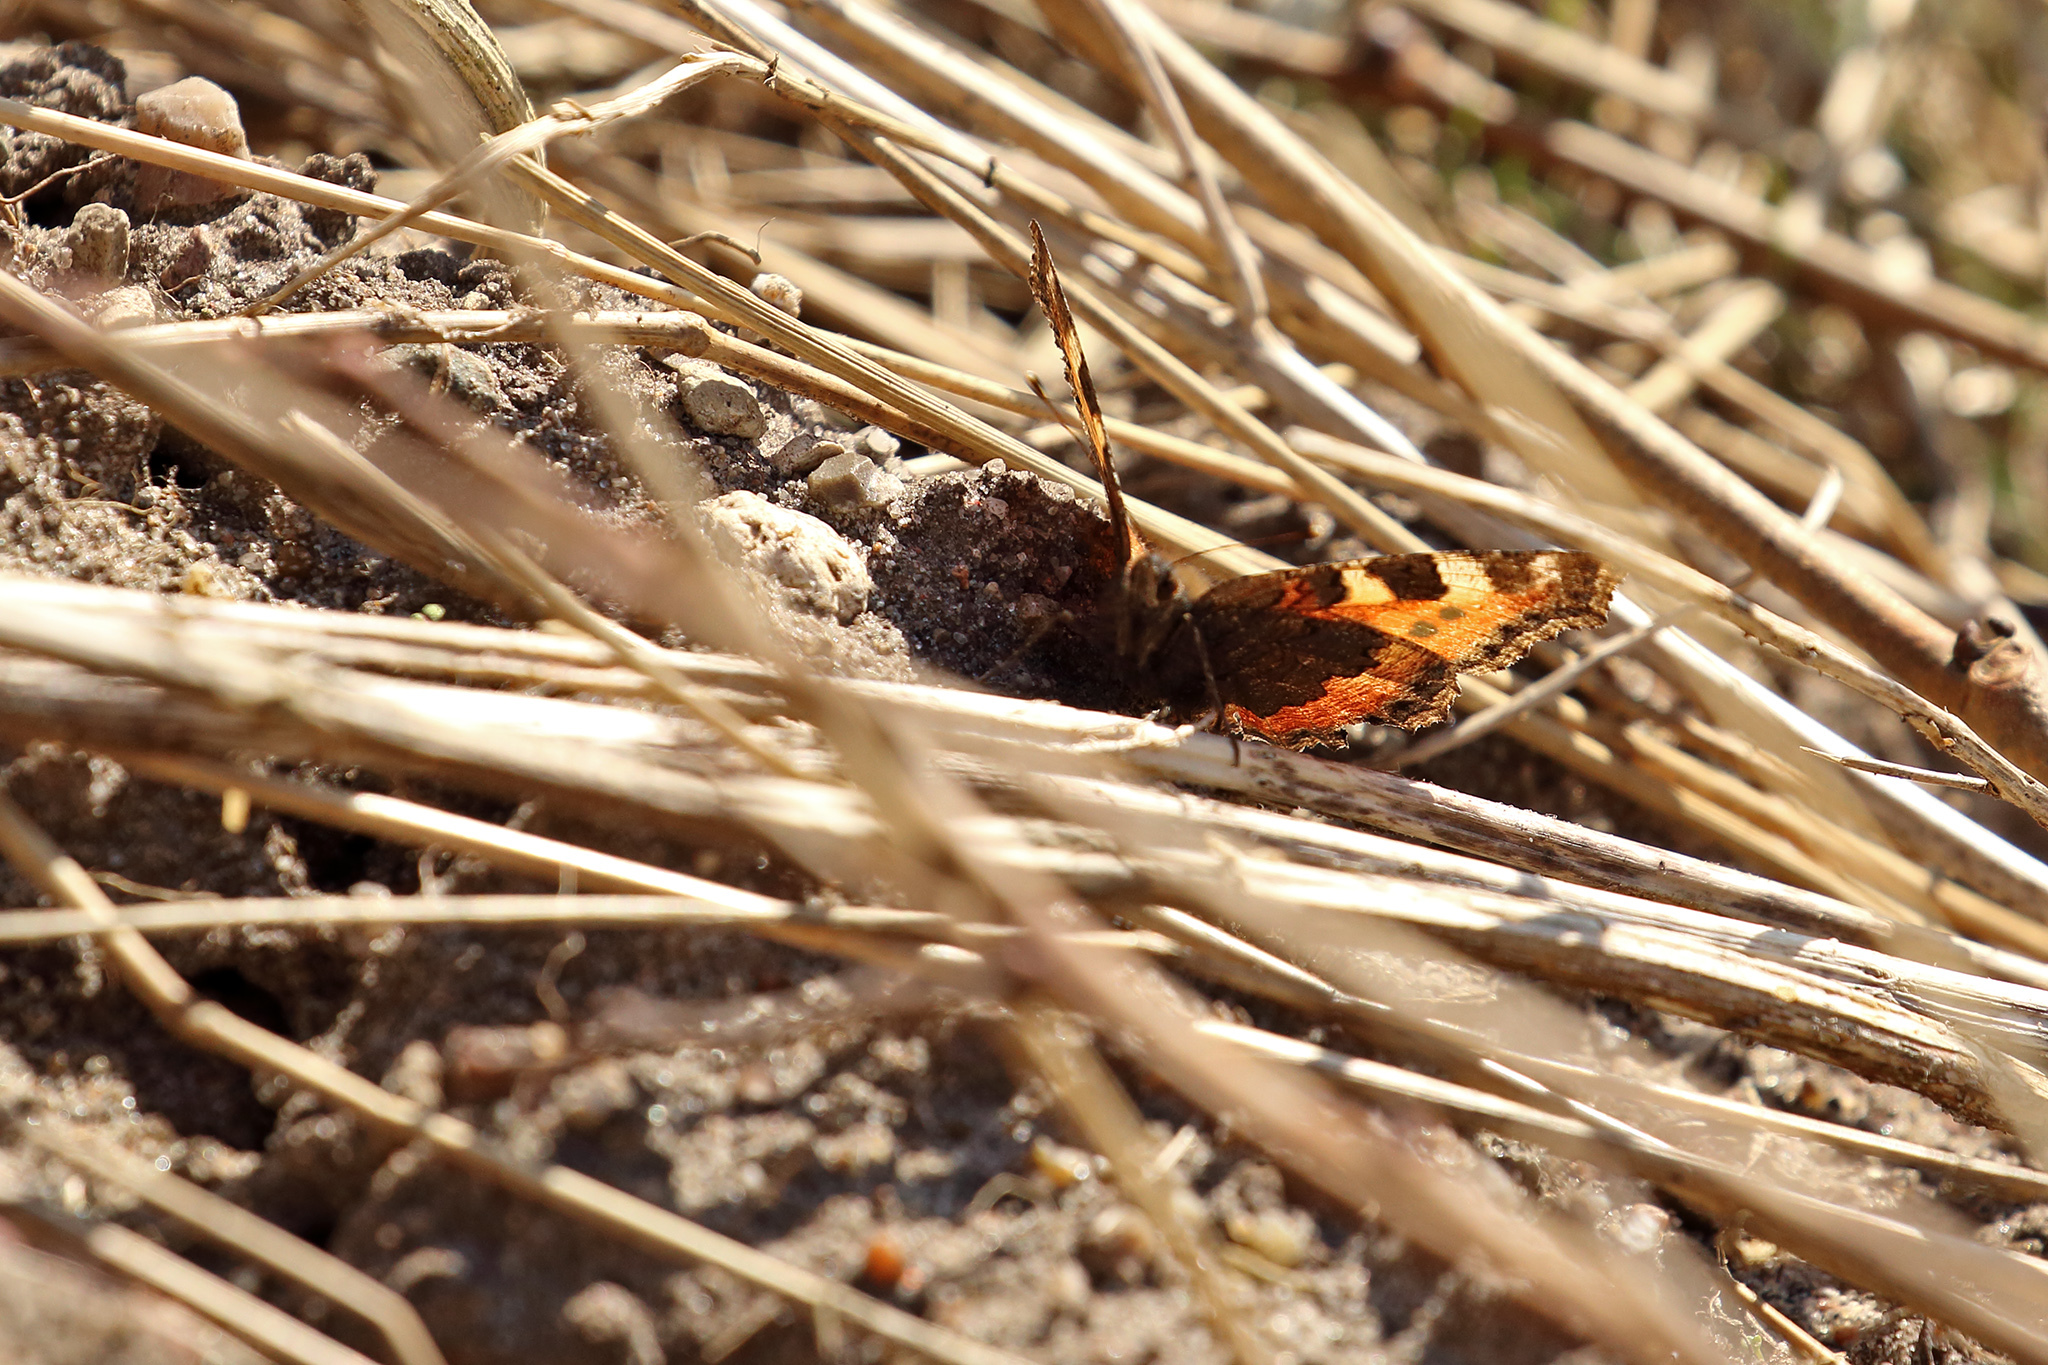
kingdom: Animalia
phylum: Arthropoda
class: Insecta
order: Lepidoptera
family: Nymphalidae
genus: Aglais
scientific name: Aglais urticae
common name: Small tortoiseshell
